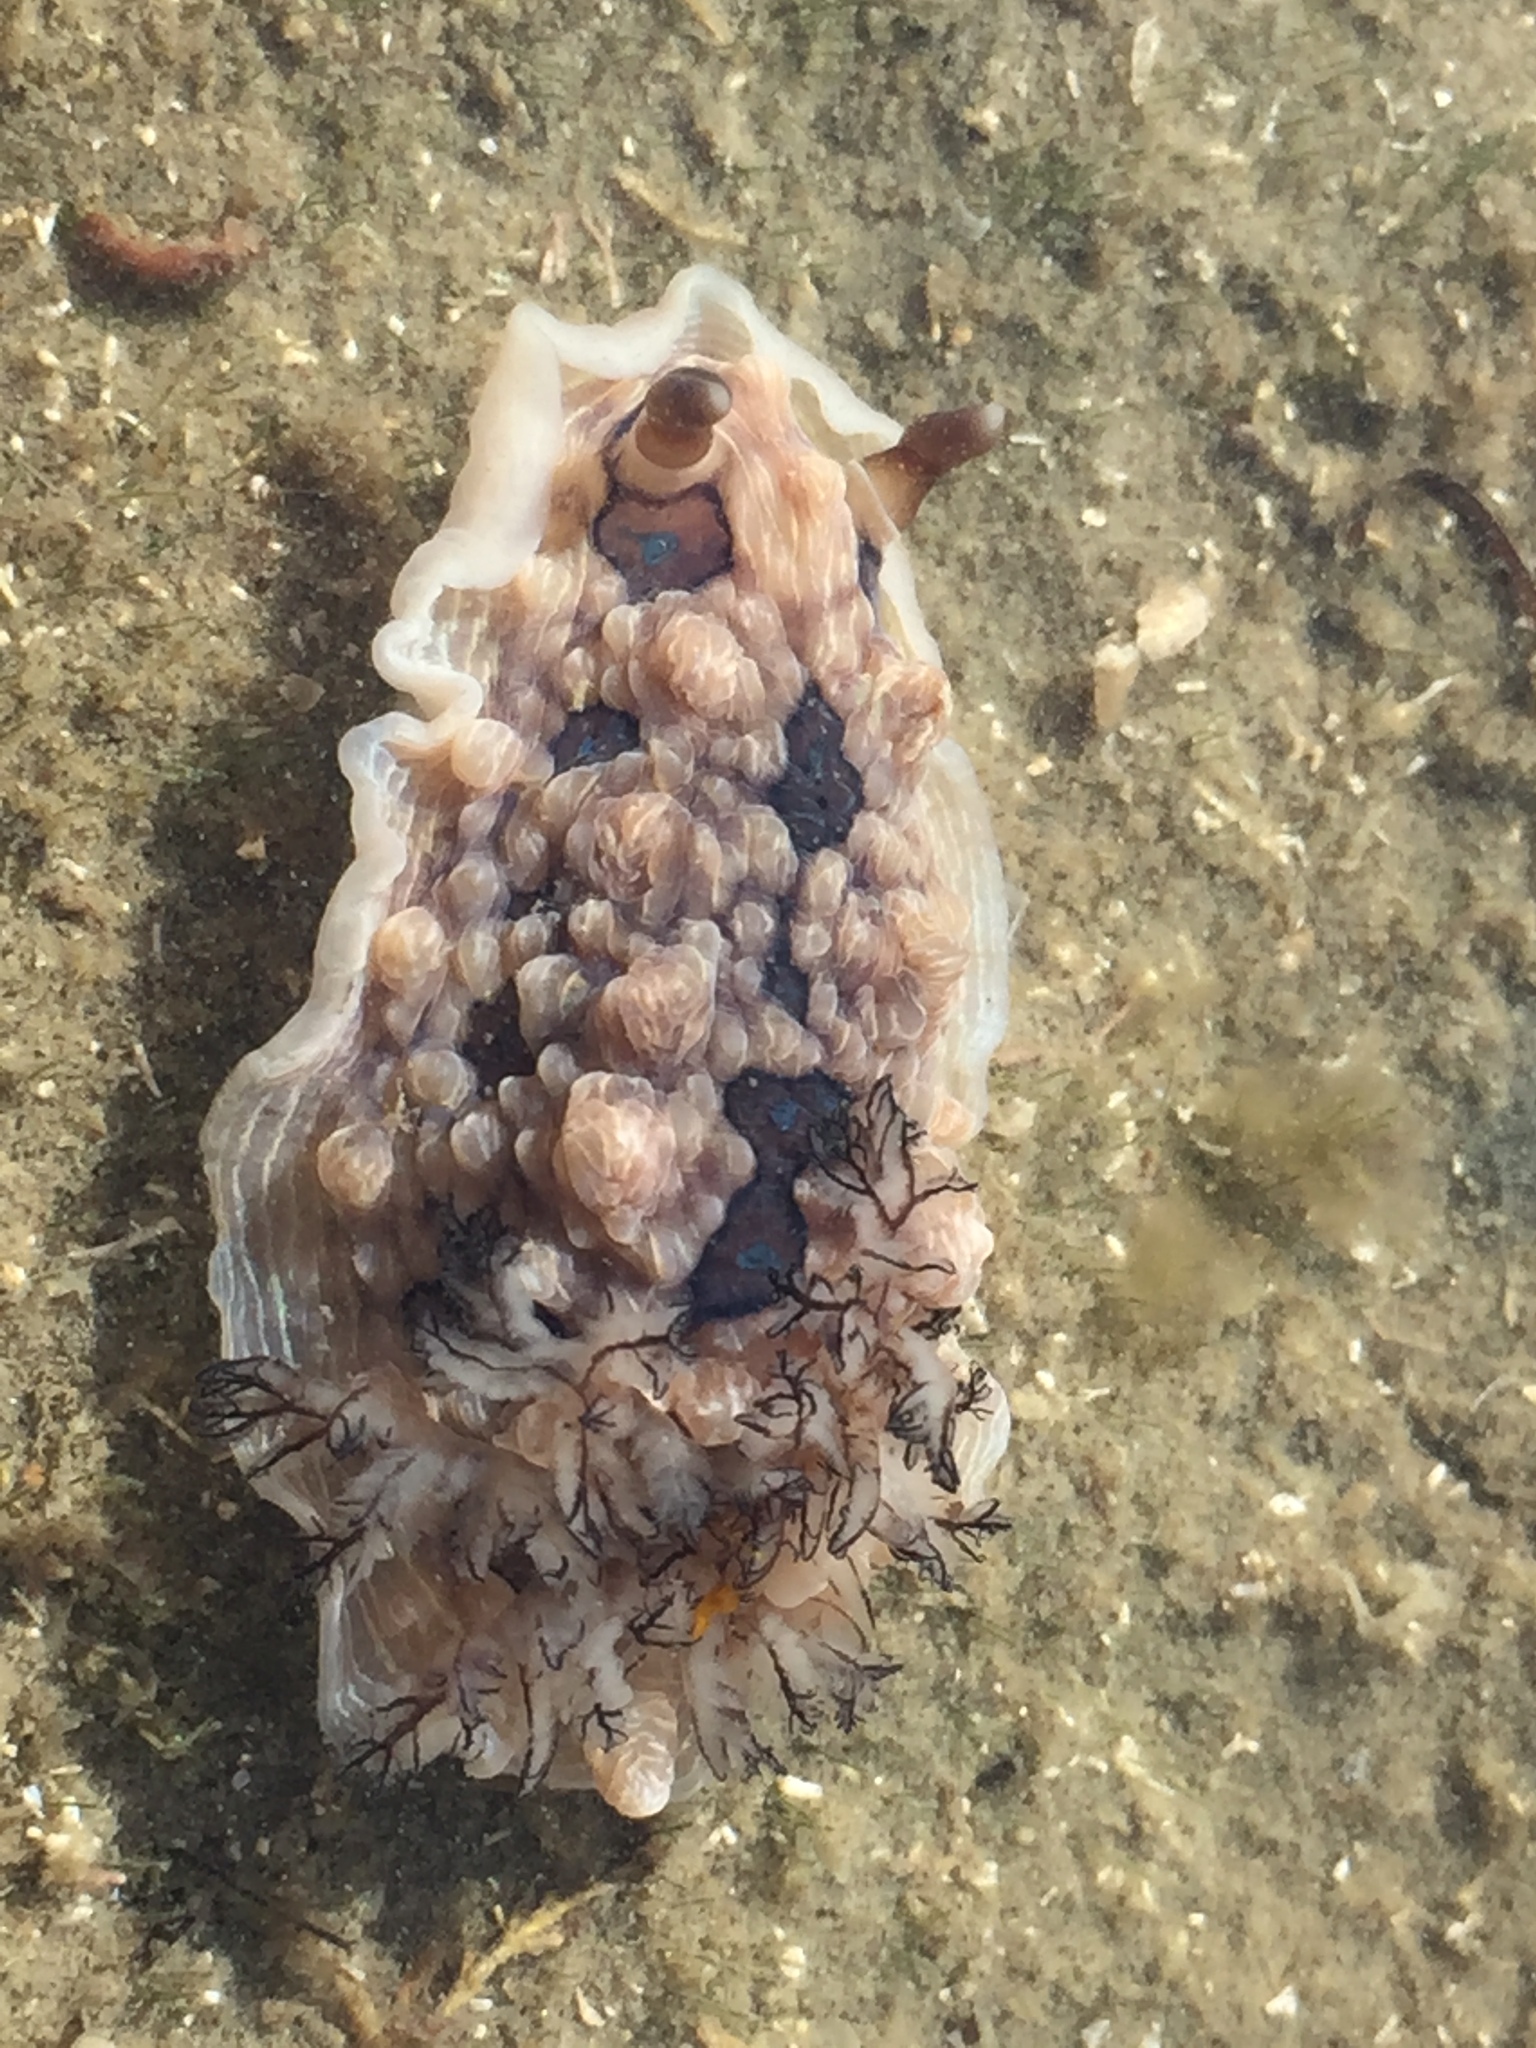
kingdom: Animalia
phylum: Mollusca
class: Gastropoda
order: Nudibranchia
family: Dendrodorididae
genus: Dendrodoris
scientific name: Dendrodoris krusensternii
